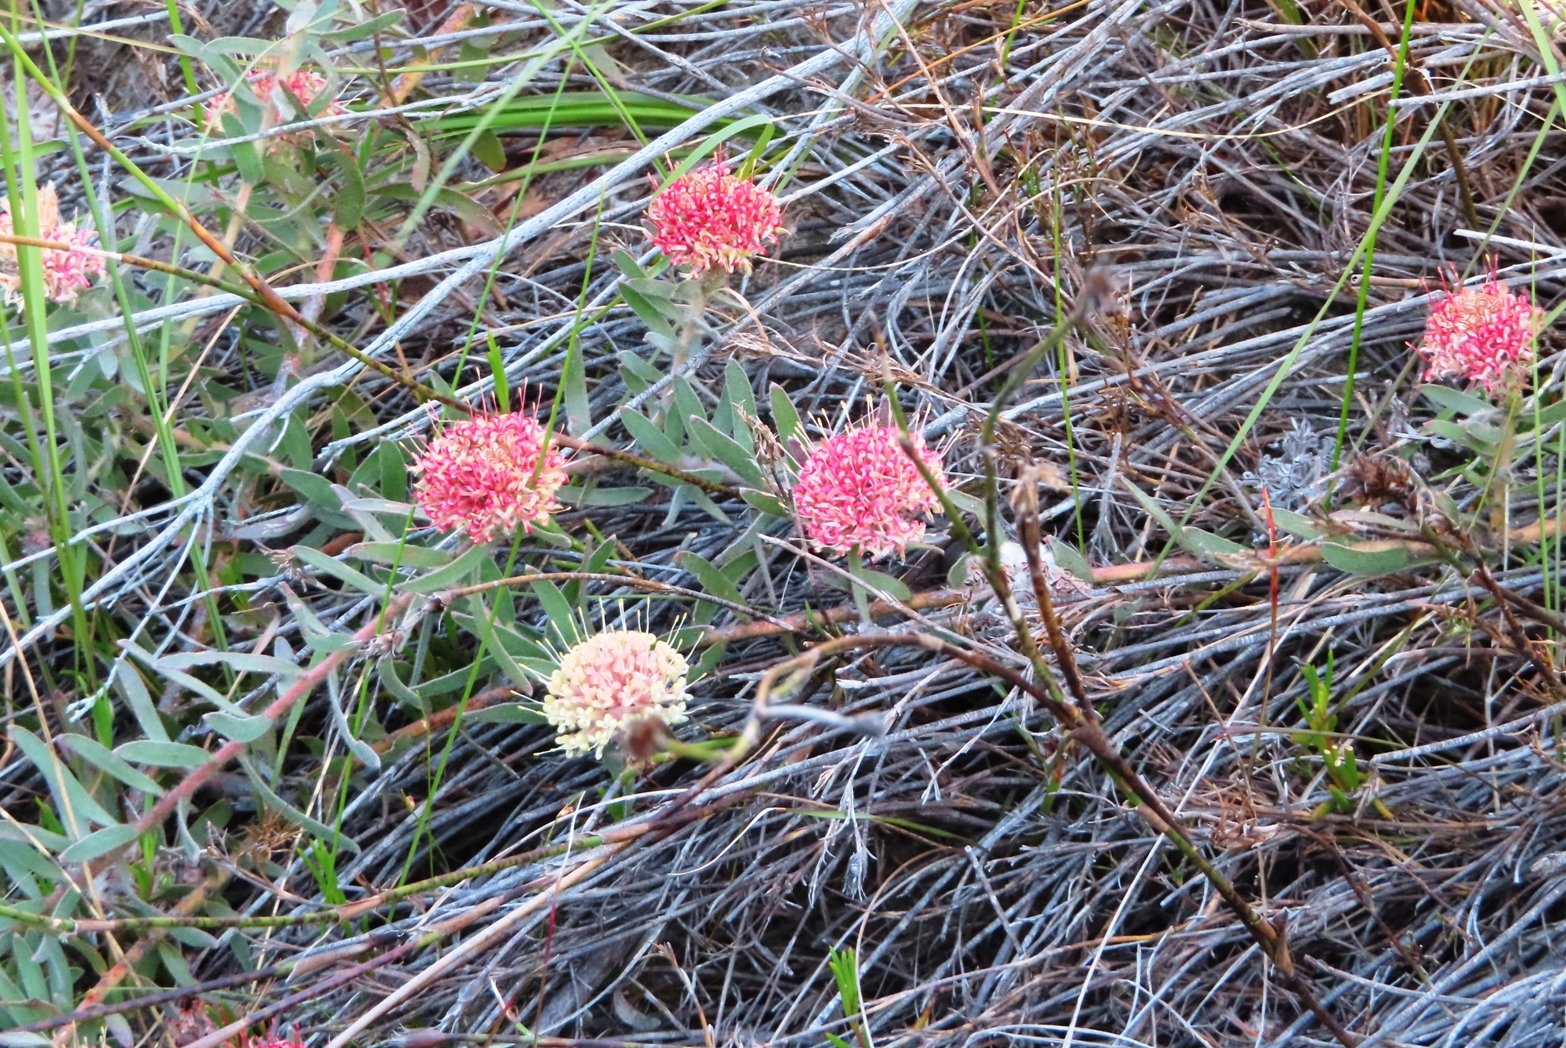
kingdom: Plantae
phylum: Tracheophyta
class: Magnoliopsida
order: Proteales
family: Proteaceae
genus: Leucospermum
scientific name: Leucospermum pedunculatum
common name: White-trailing pincushion
